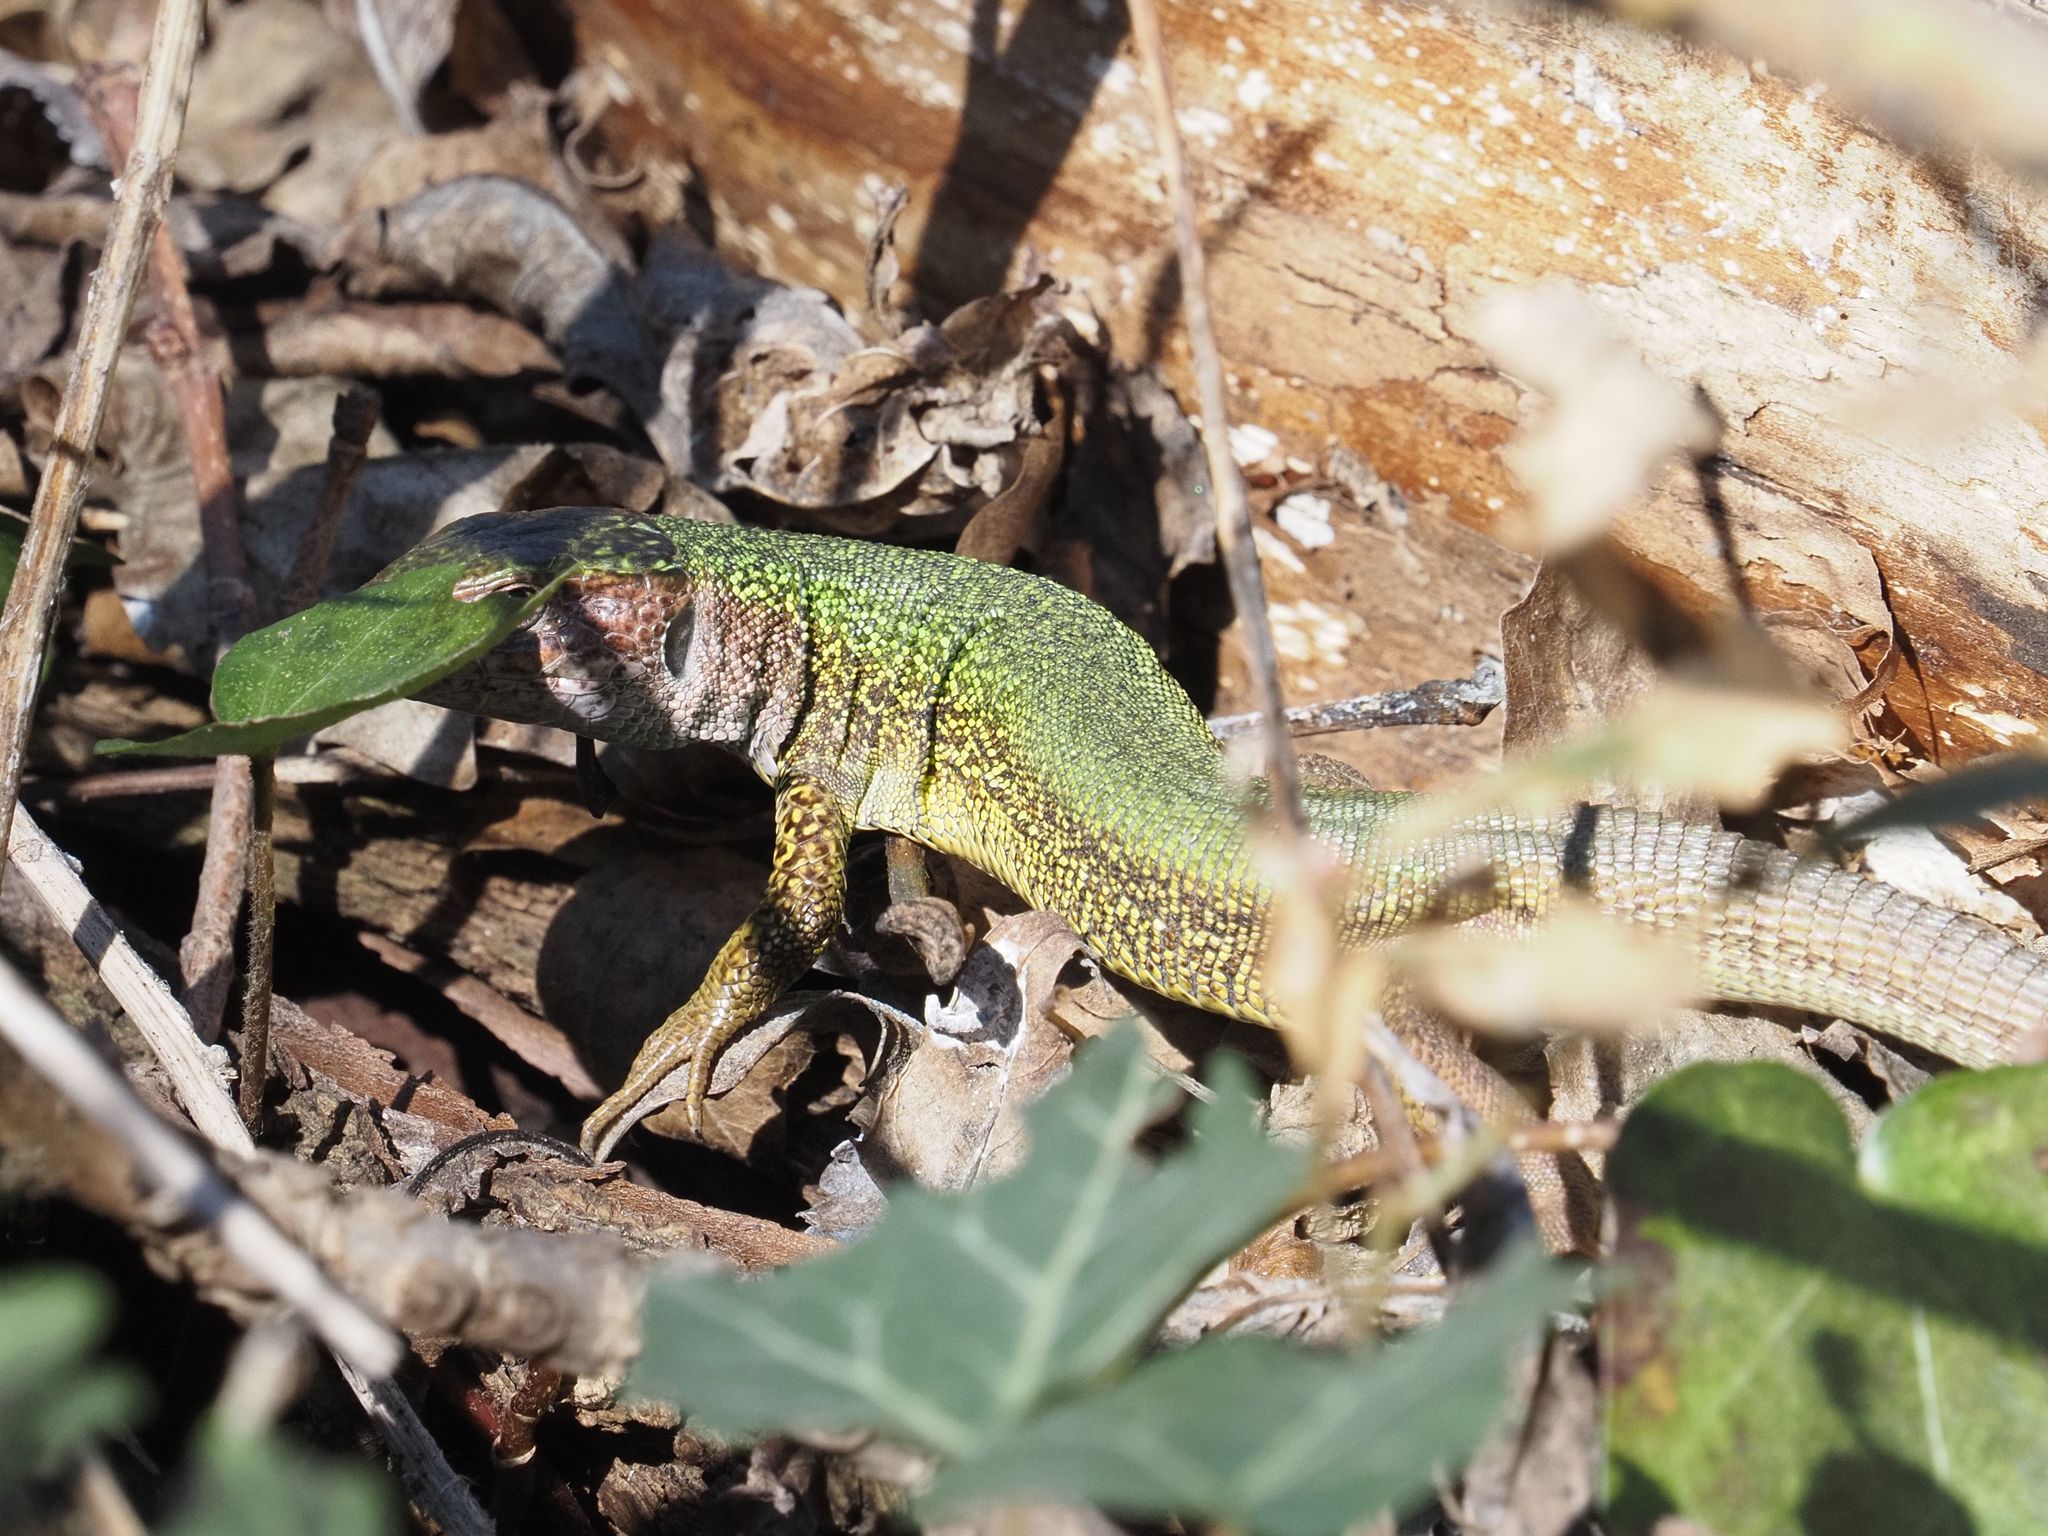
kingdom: Animalia
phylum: Chordata
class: Squamata
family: Lacertidae
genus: Lacerta
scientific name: Lacerta viridis
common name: European green lizard
